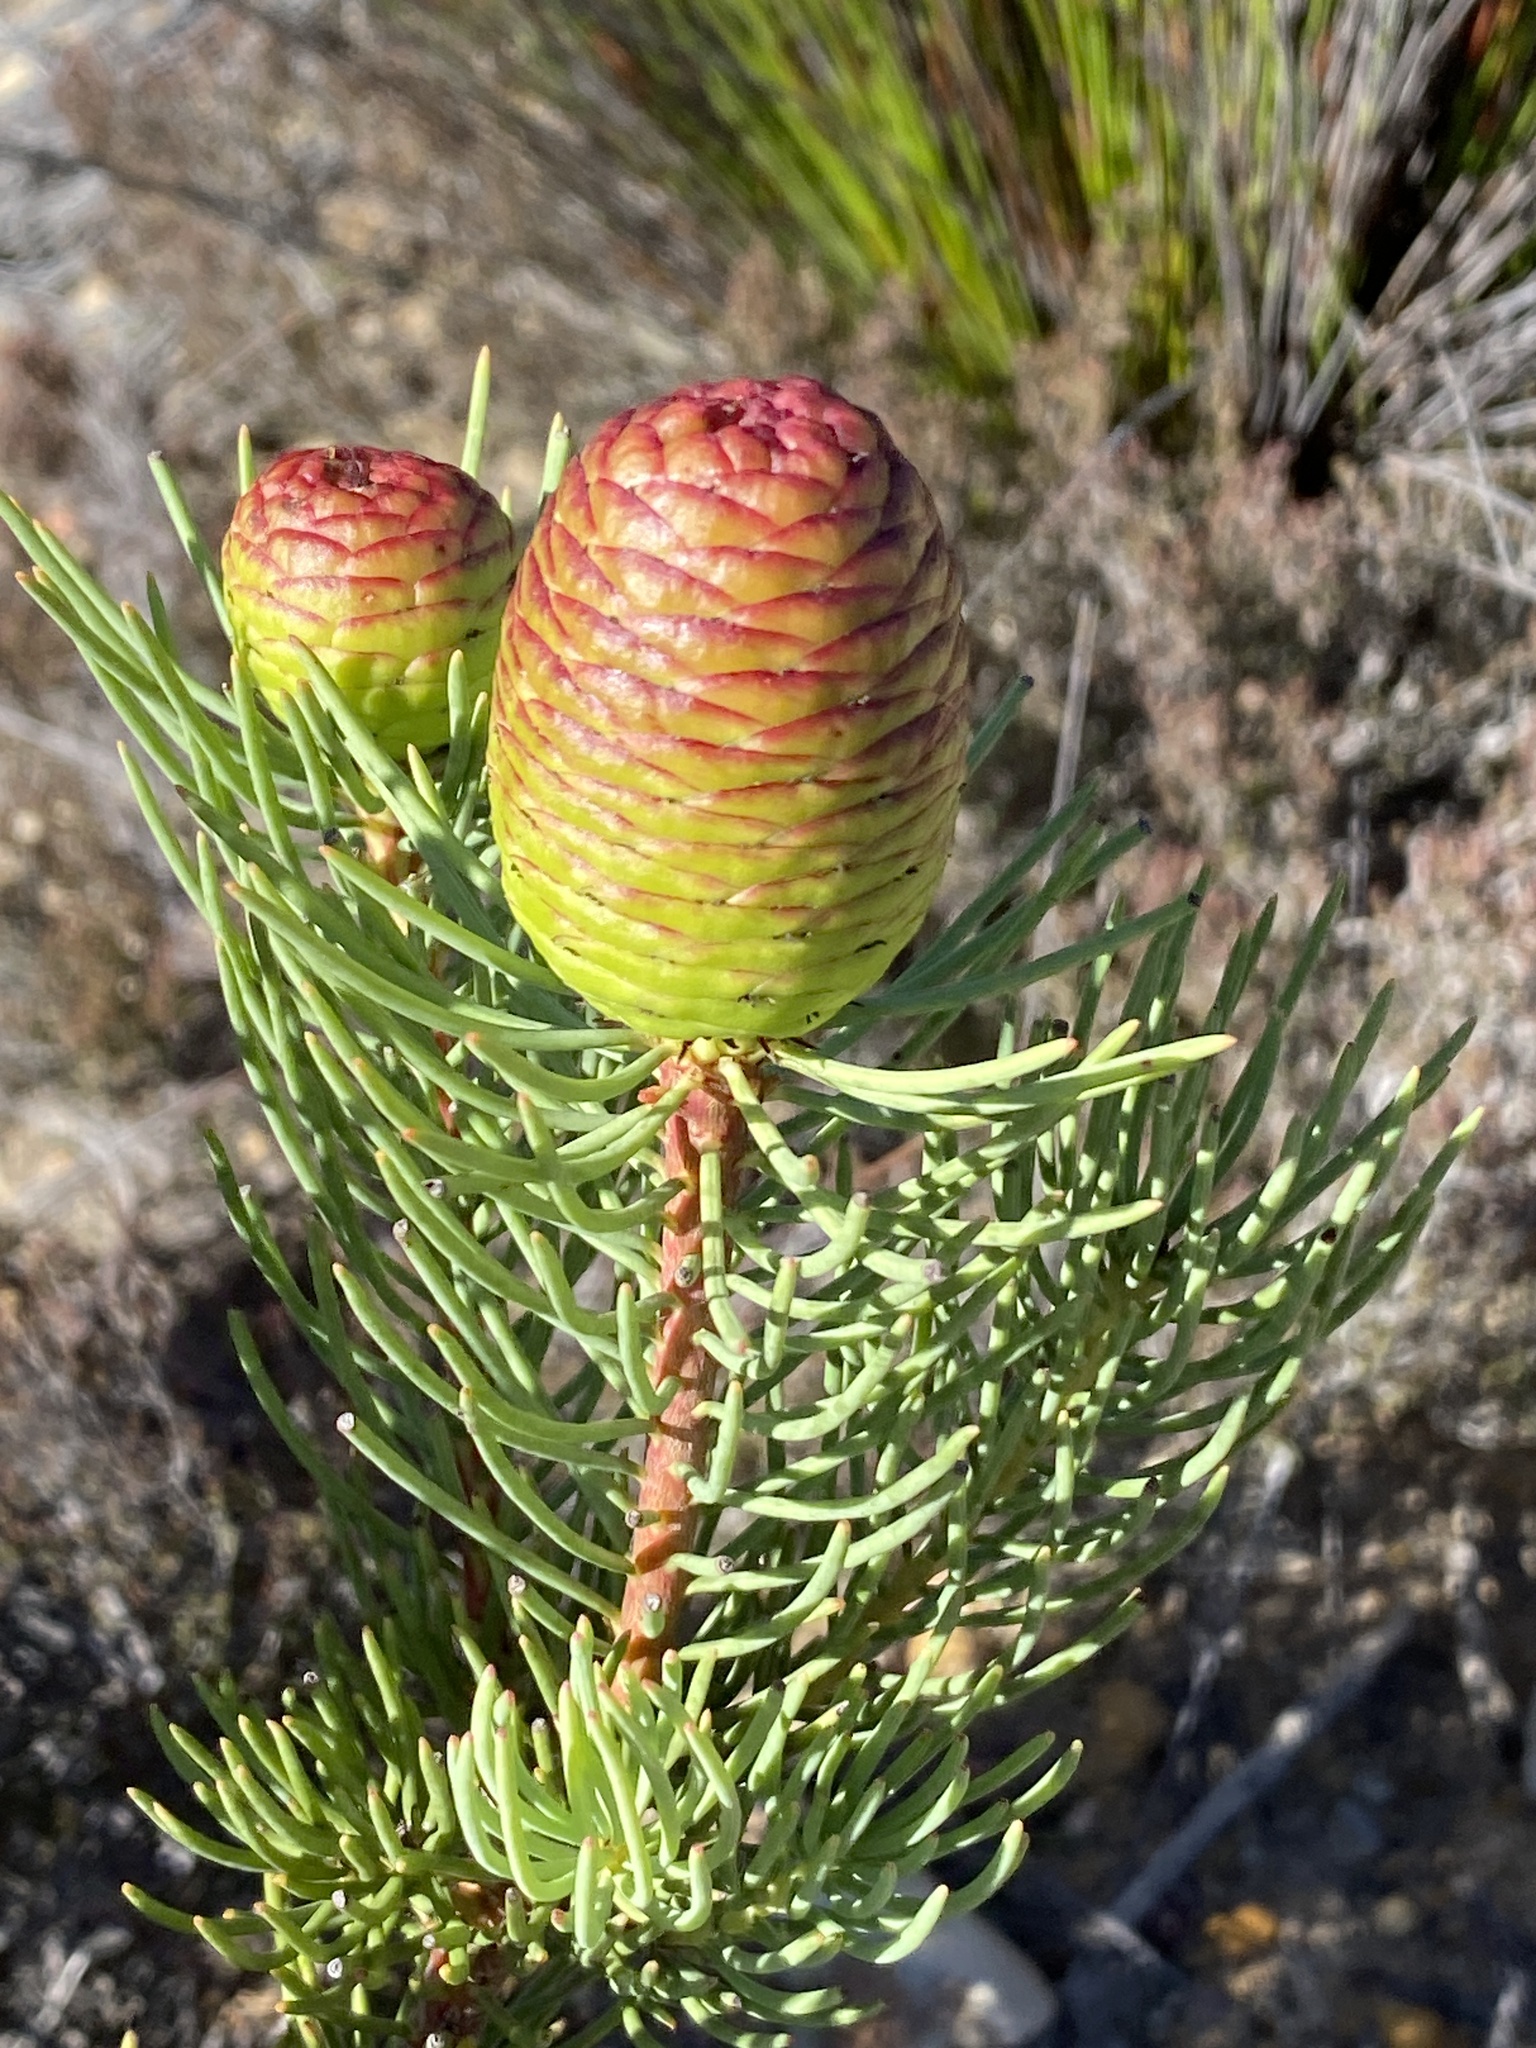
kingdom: Plantae
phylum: Tracheophyta
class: Magnoliopsida
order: Proteales
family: Proteaceae
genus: Leucadendron
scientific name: Leucadendron nobile
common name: Karoo conebush
